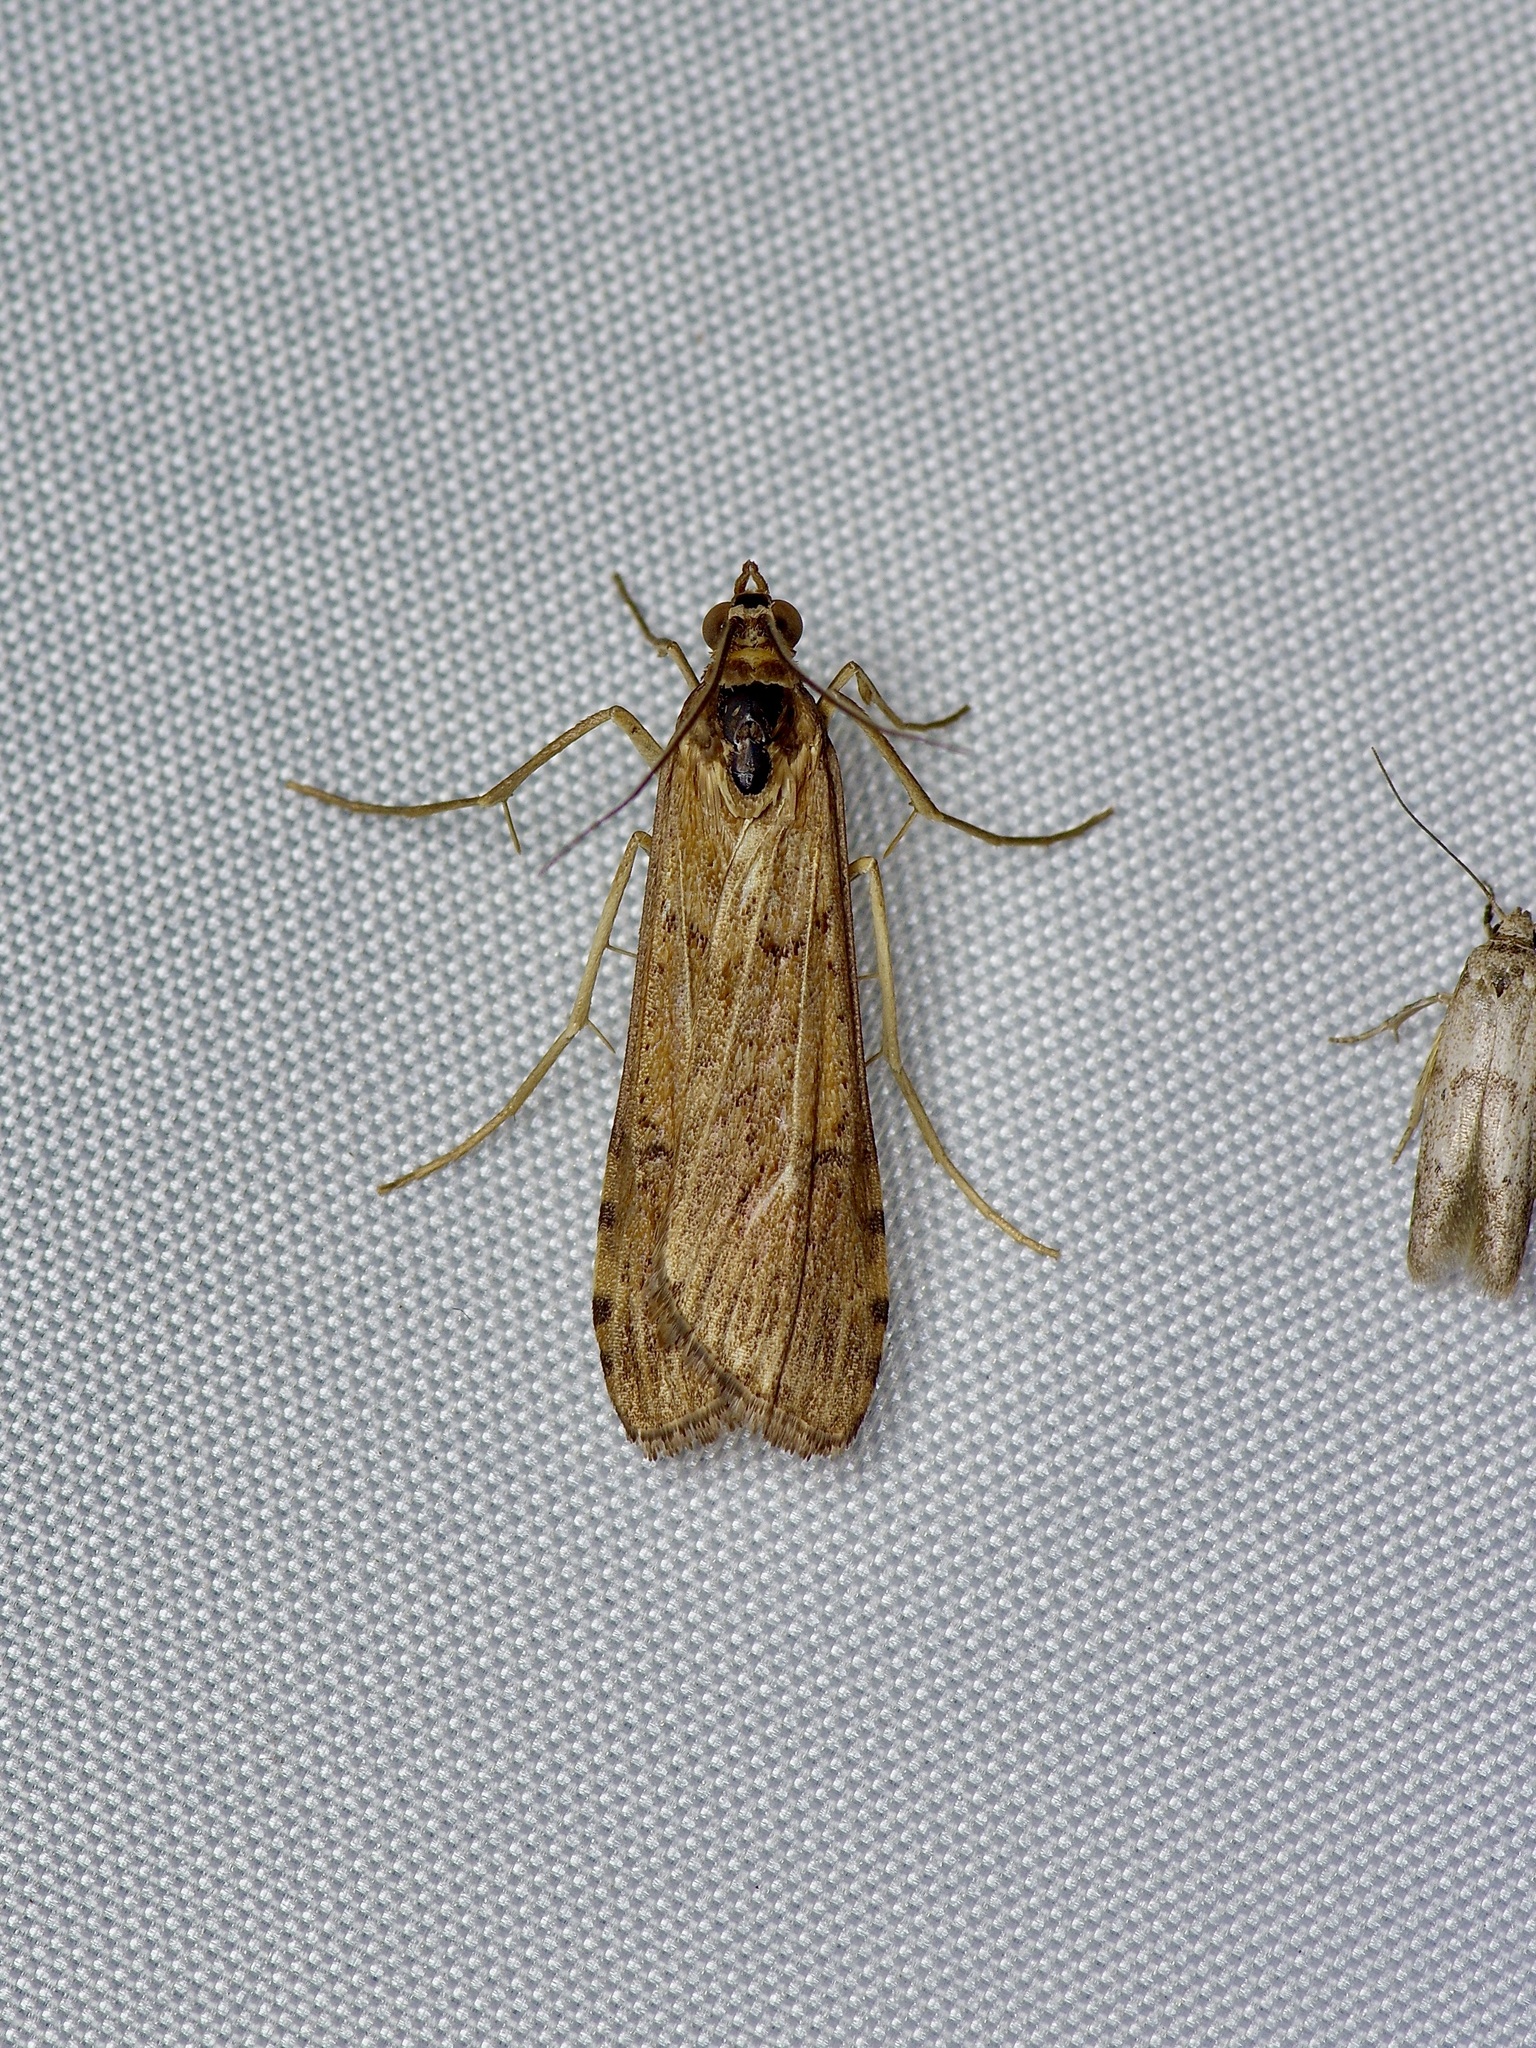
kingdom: Animalia
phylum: Arthropoda
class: Insecta
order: Lepidoptera
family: Crambidae
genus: Nomophila
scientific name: Nomophila nearctica
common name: American rush veneer
